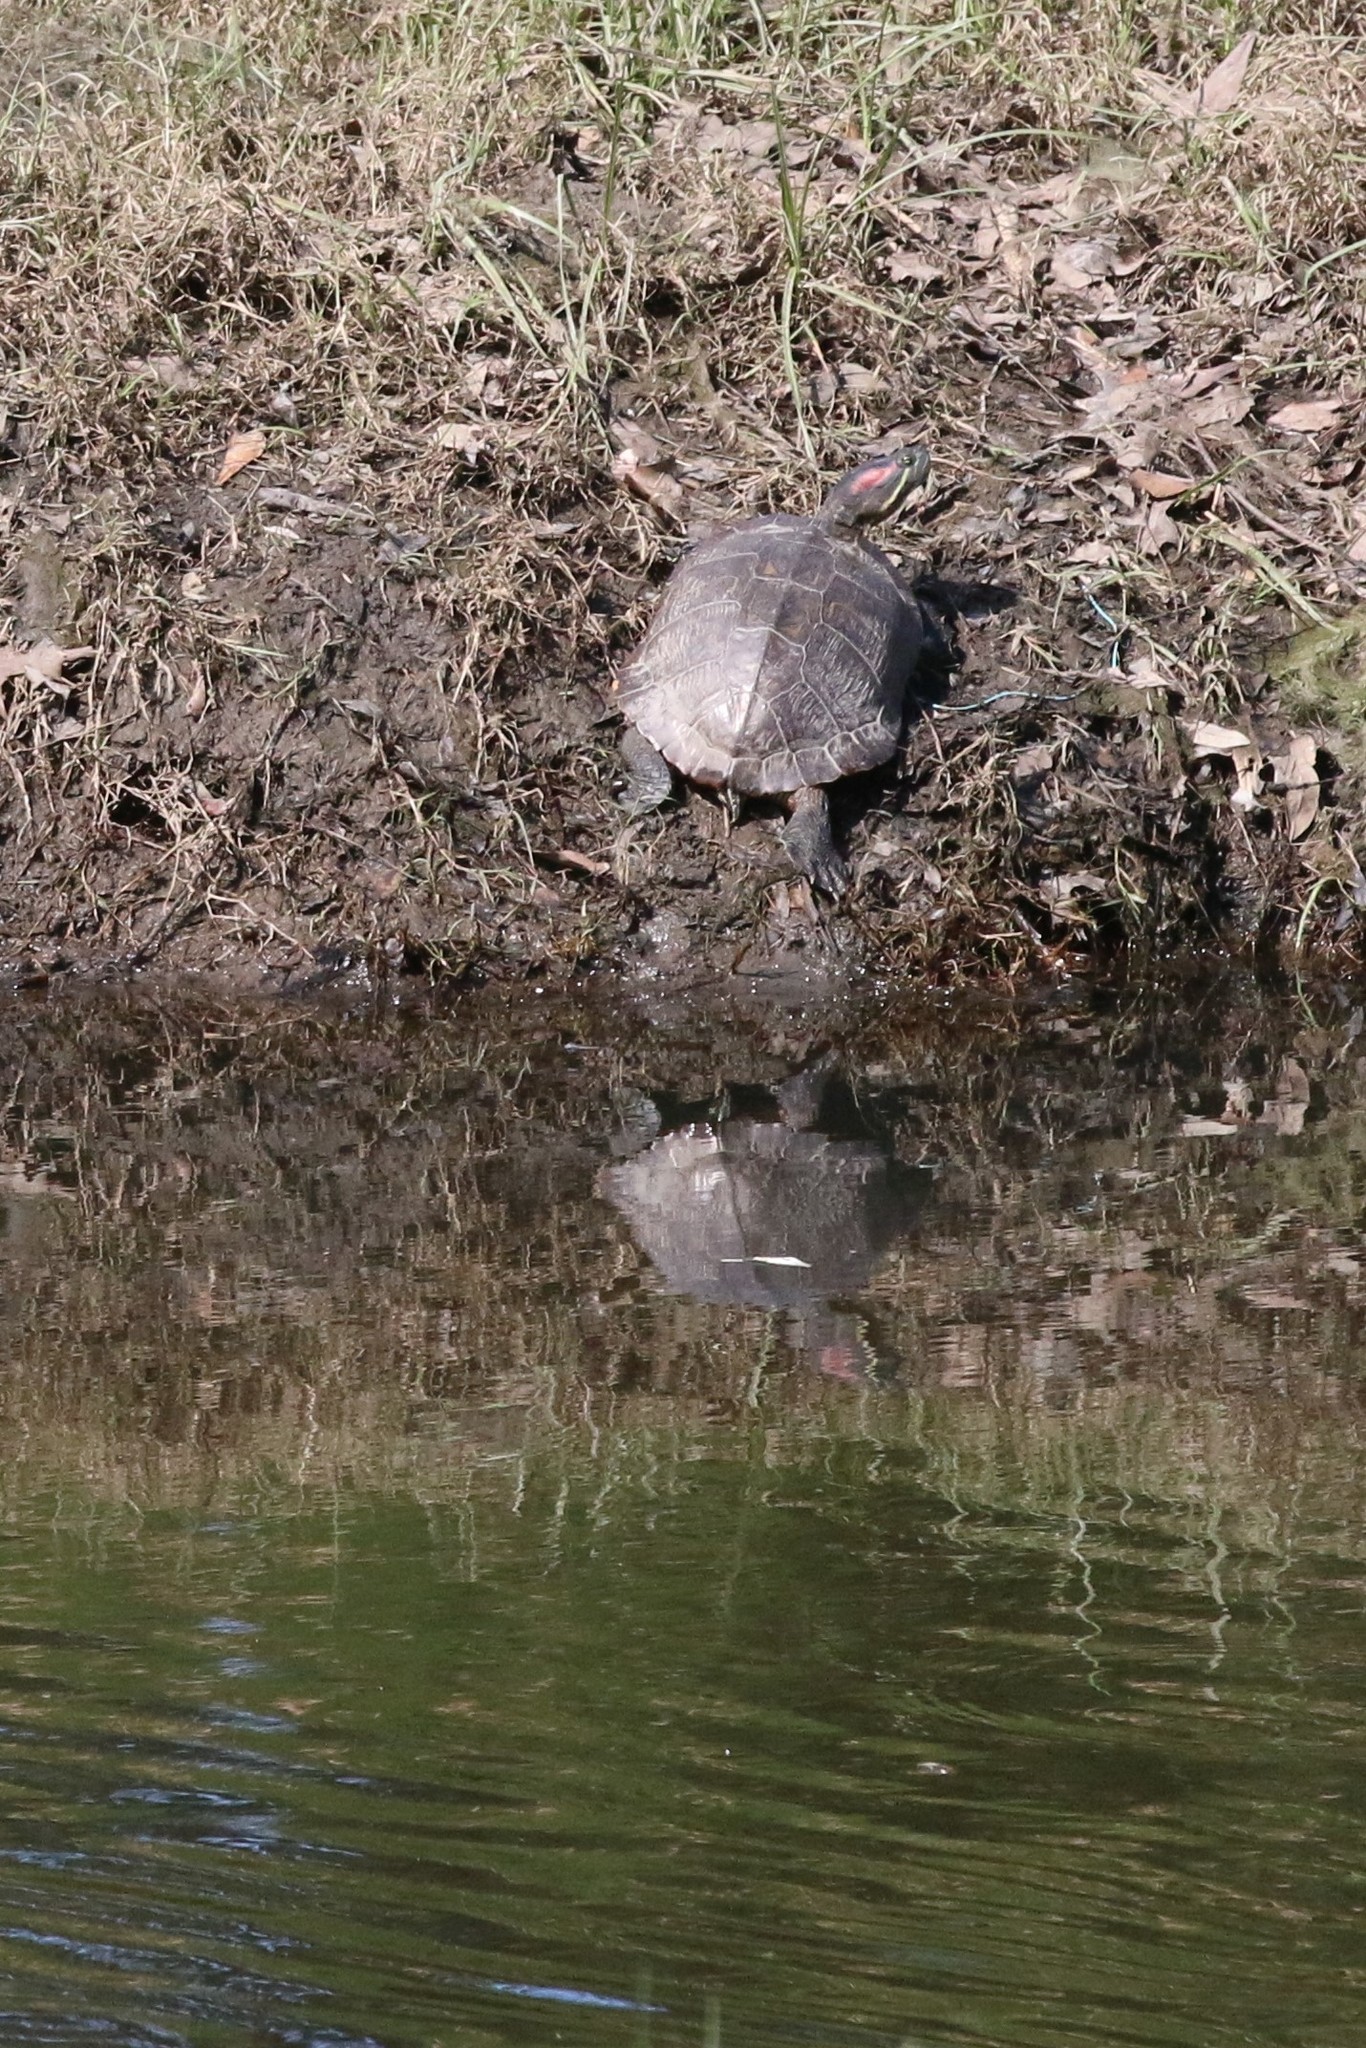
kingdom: Animalia
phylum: Chordata
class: Testudines
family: Emydidae
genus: Trachemys
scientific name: Trachemys scripta
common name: Slider
